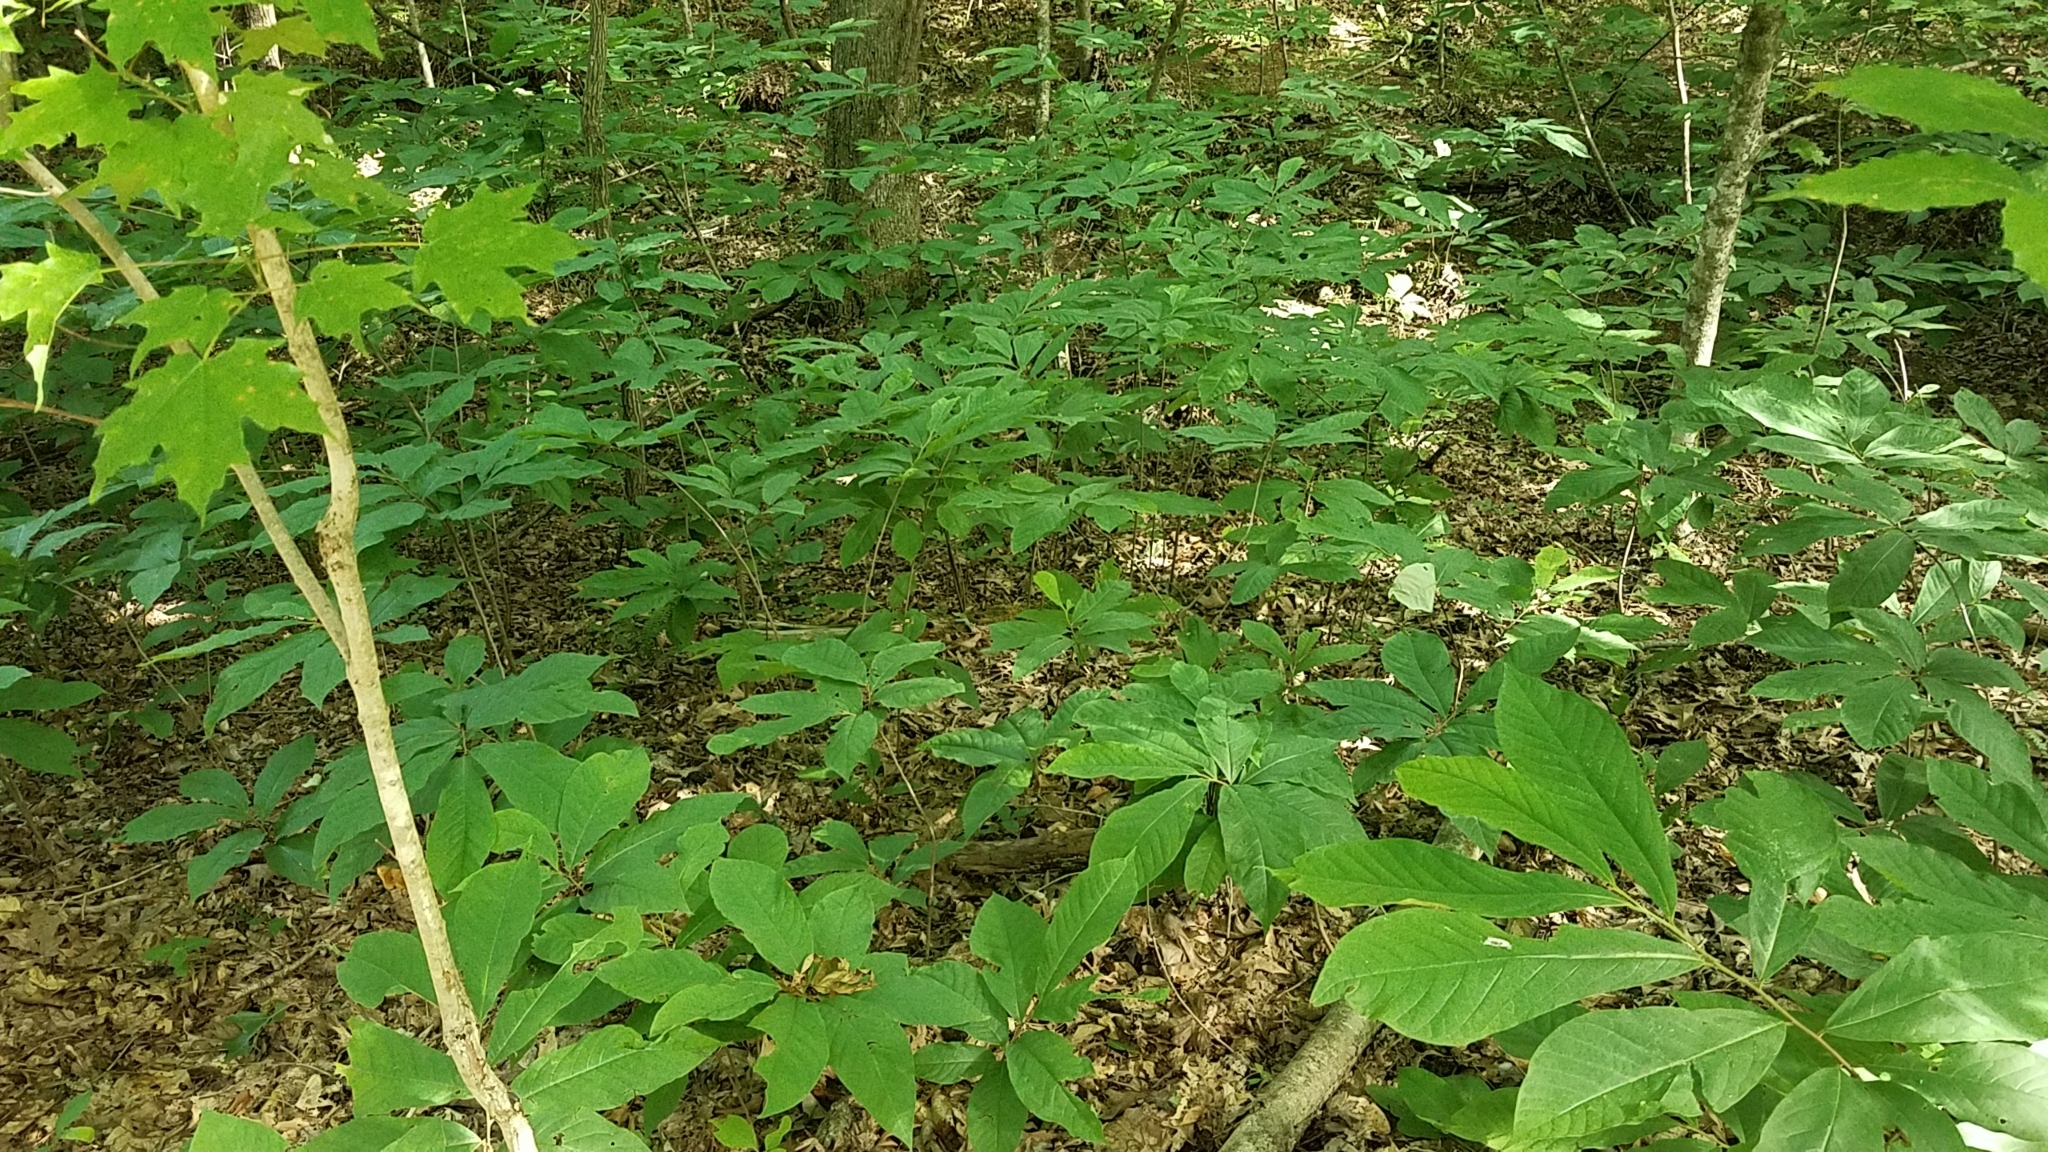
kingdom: Plantae
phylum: Tracheophyta
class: Magnoliopsida
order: Magnoliales
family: Annonaceae
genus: Asimina
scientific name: Asimina triloba
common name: Dog-banana
